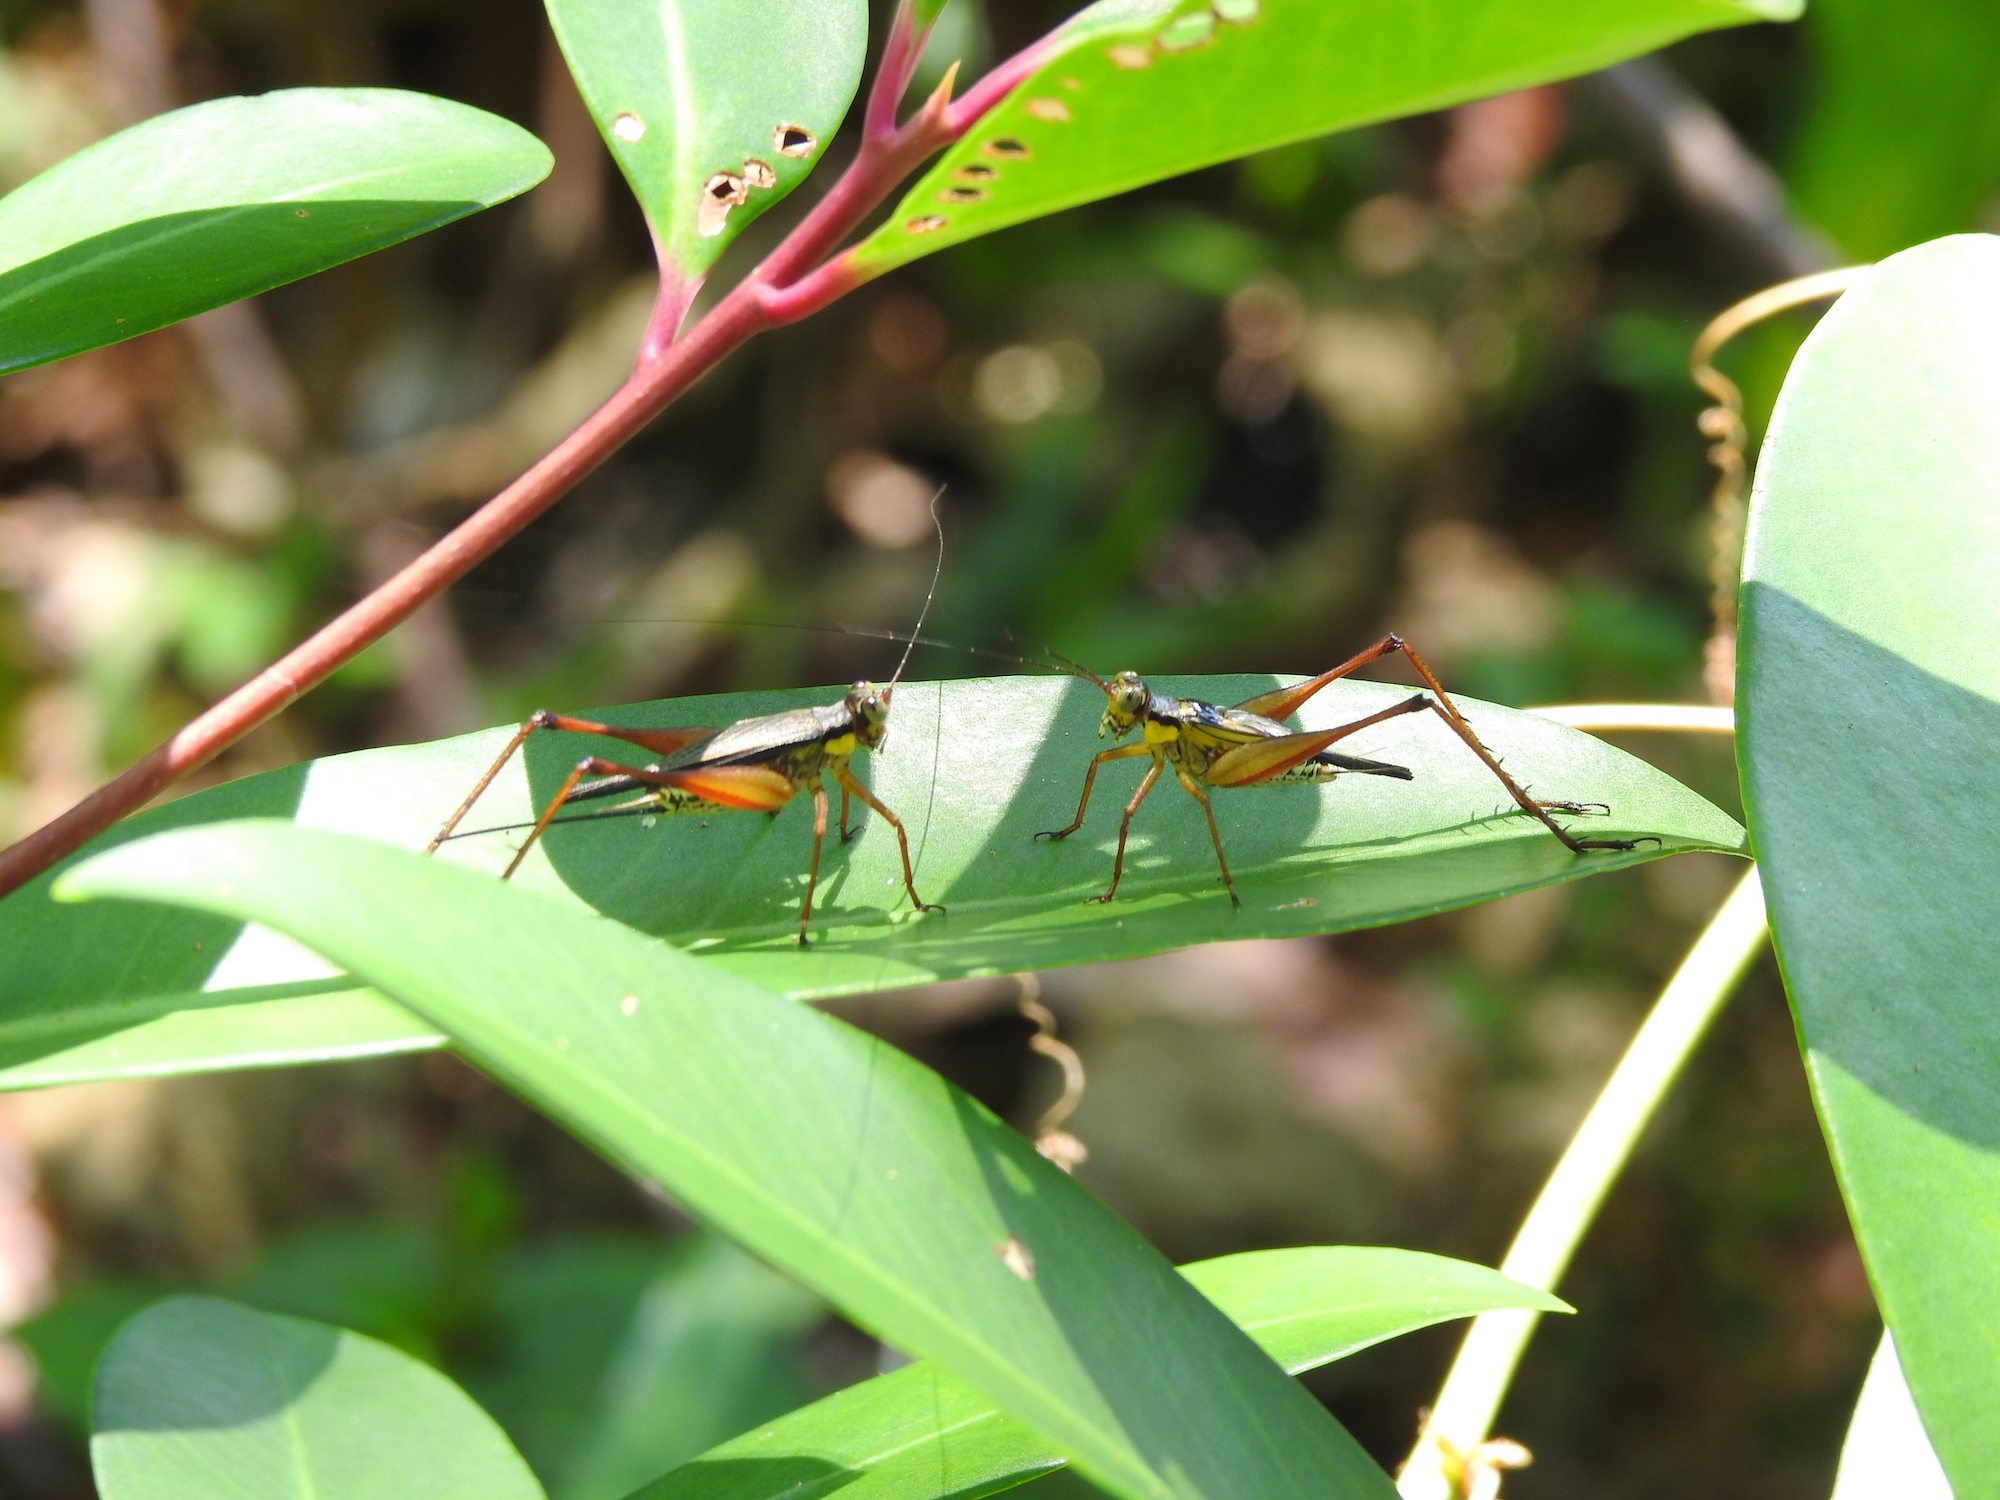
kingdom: Animalia
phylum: Arthropoda
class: Insecta
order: Orthoptera
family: Gryllidae
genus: Nisitrus
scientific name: Nisitrus malaya
